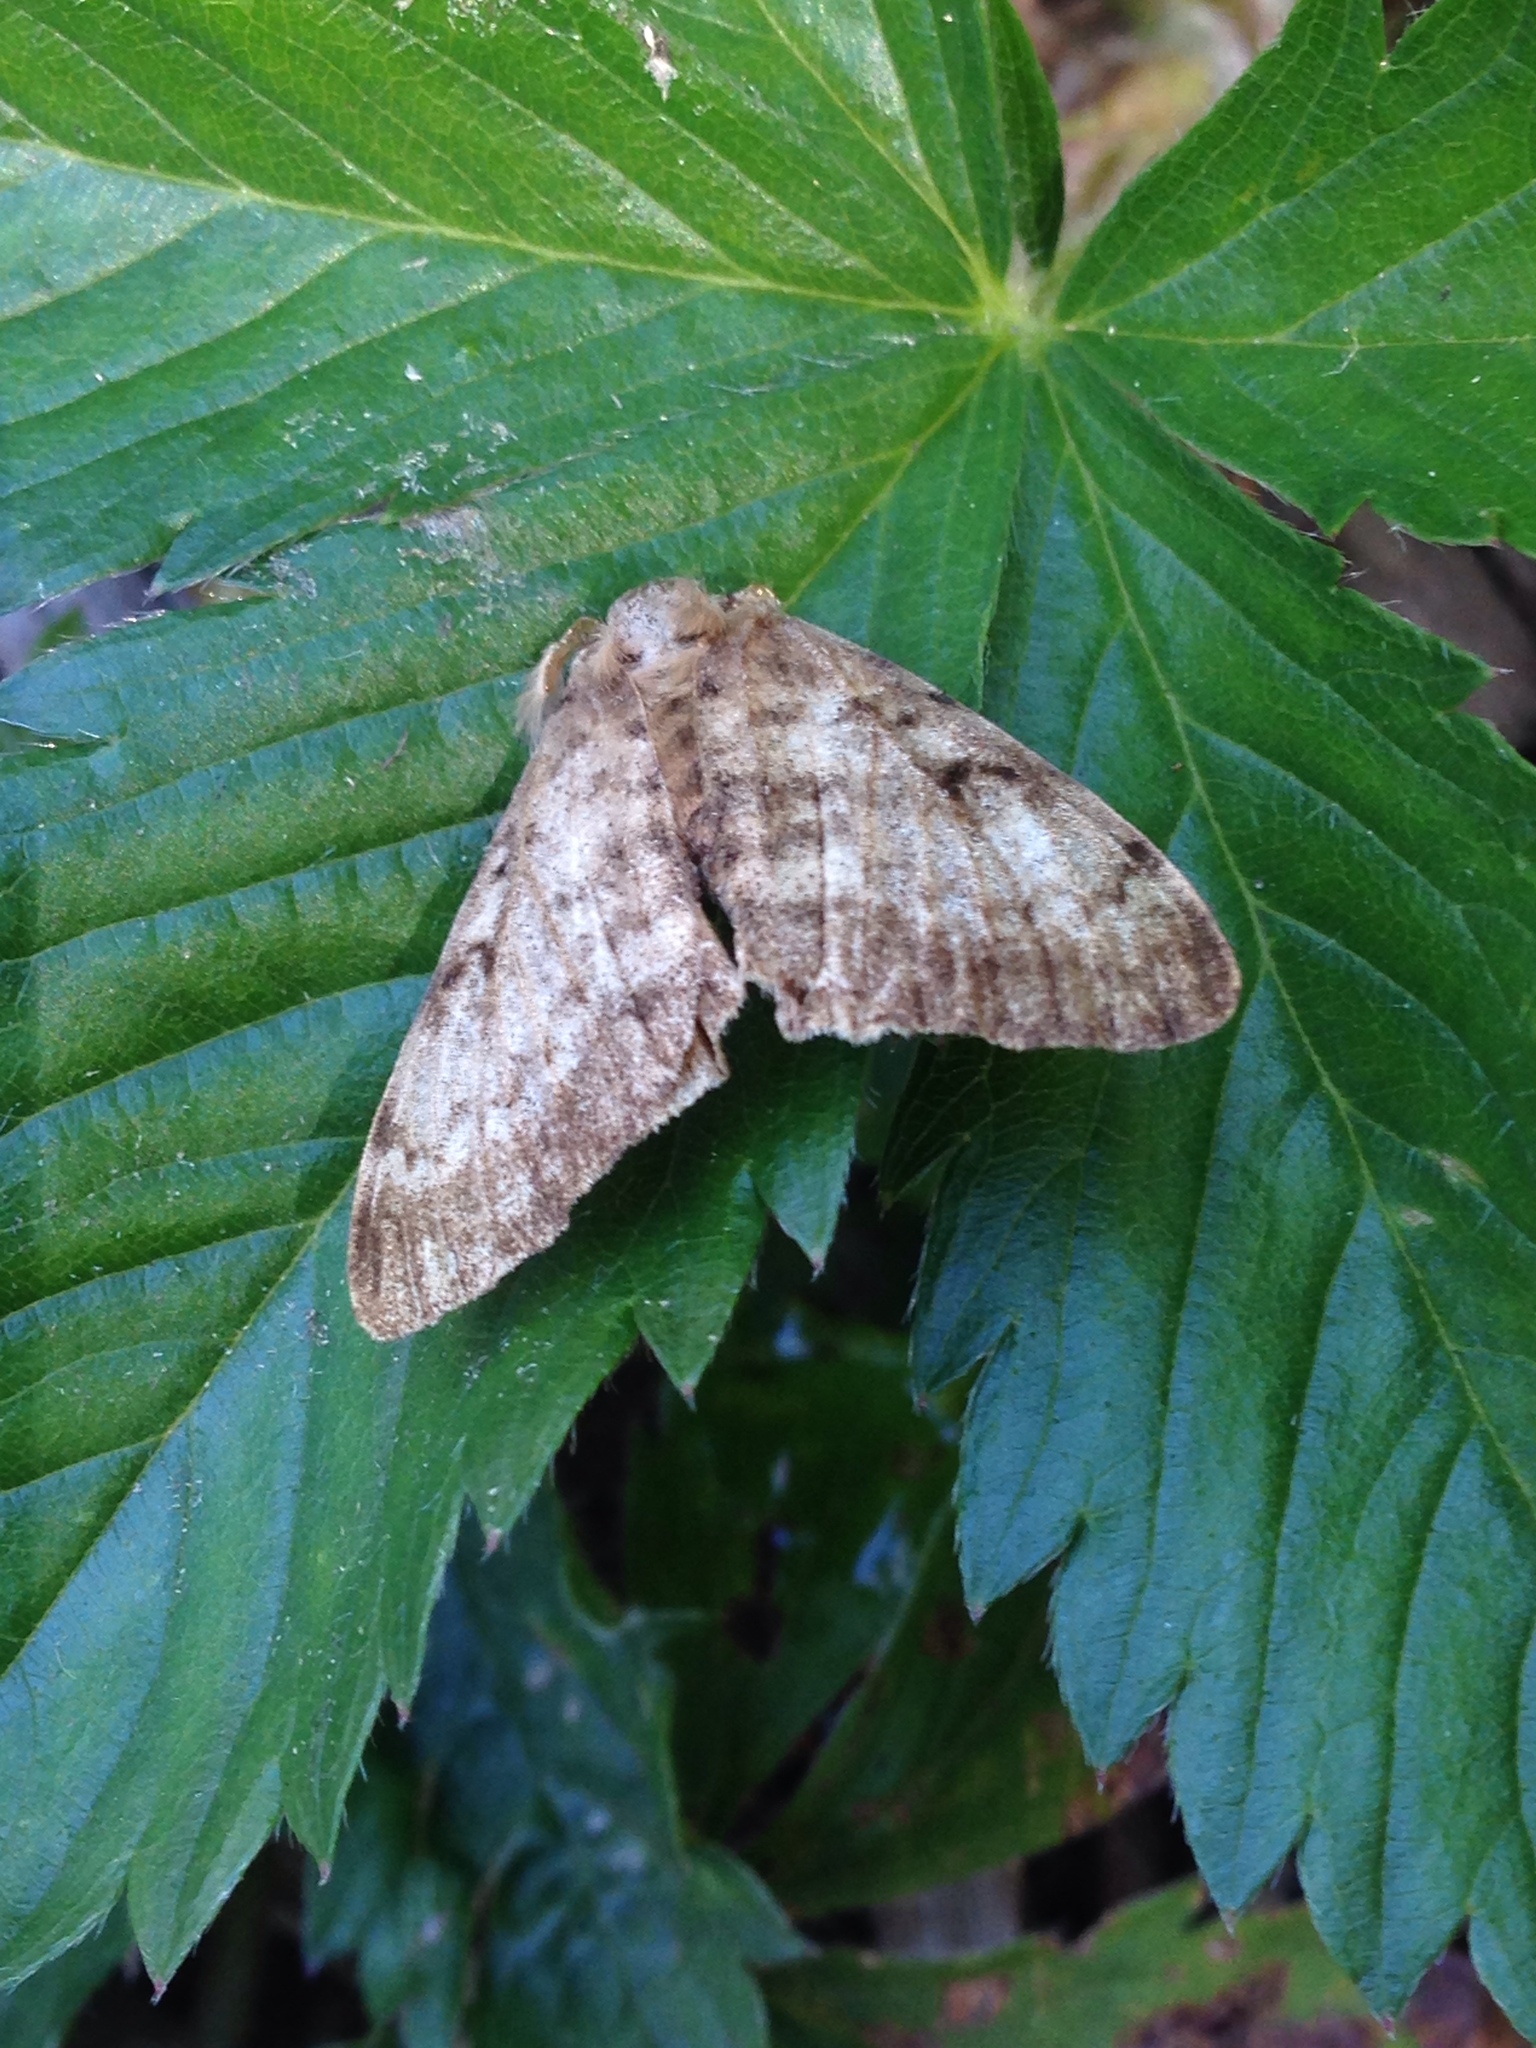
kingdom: Animalia
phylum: Arthropoda
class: Insecta
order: Lepidoptera
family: Erebidae
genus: Lymantria
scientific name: Lymantria dispar
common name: Gypsy moth
